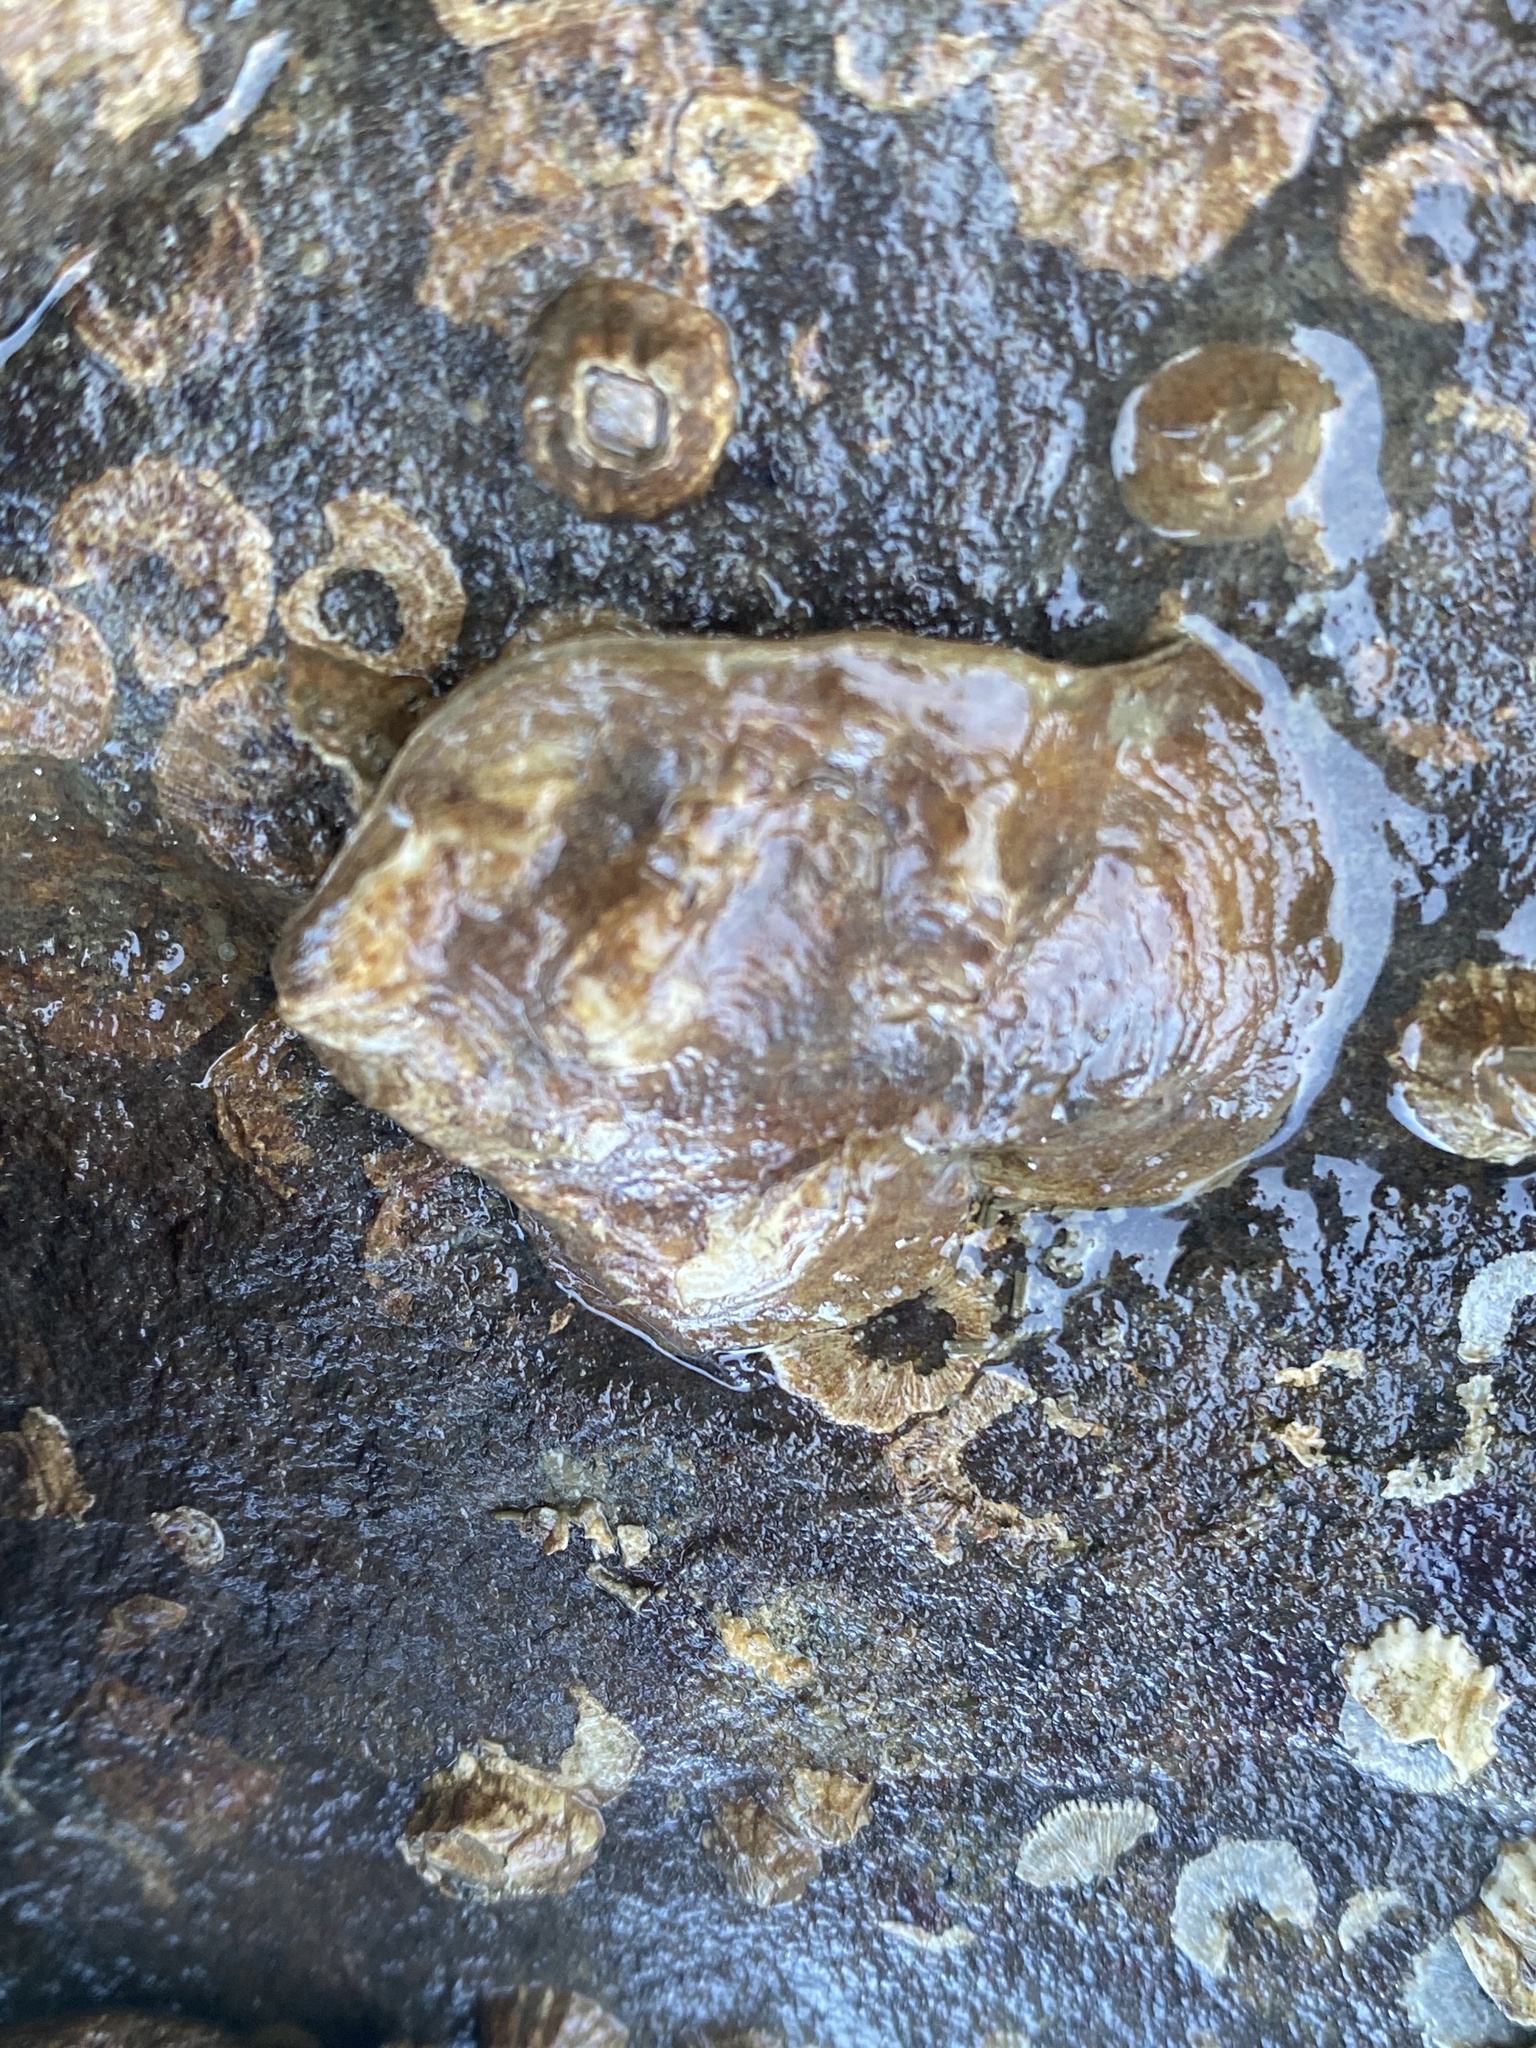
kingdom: Animalia
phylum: Mollusca
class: Bivalvia
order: Ostreida
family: Ostreidae
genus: Ostrea
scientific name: Ostrea lurida
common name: Olympia flat oyster
